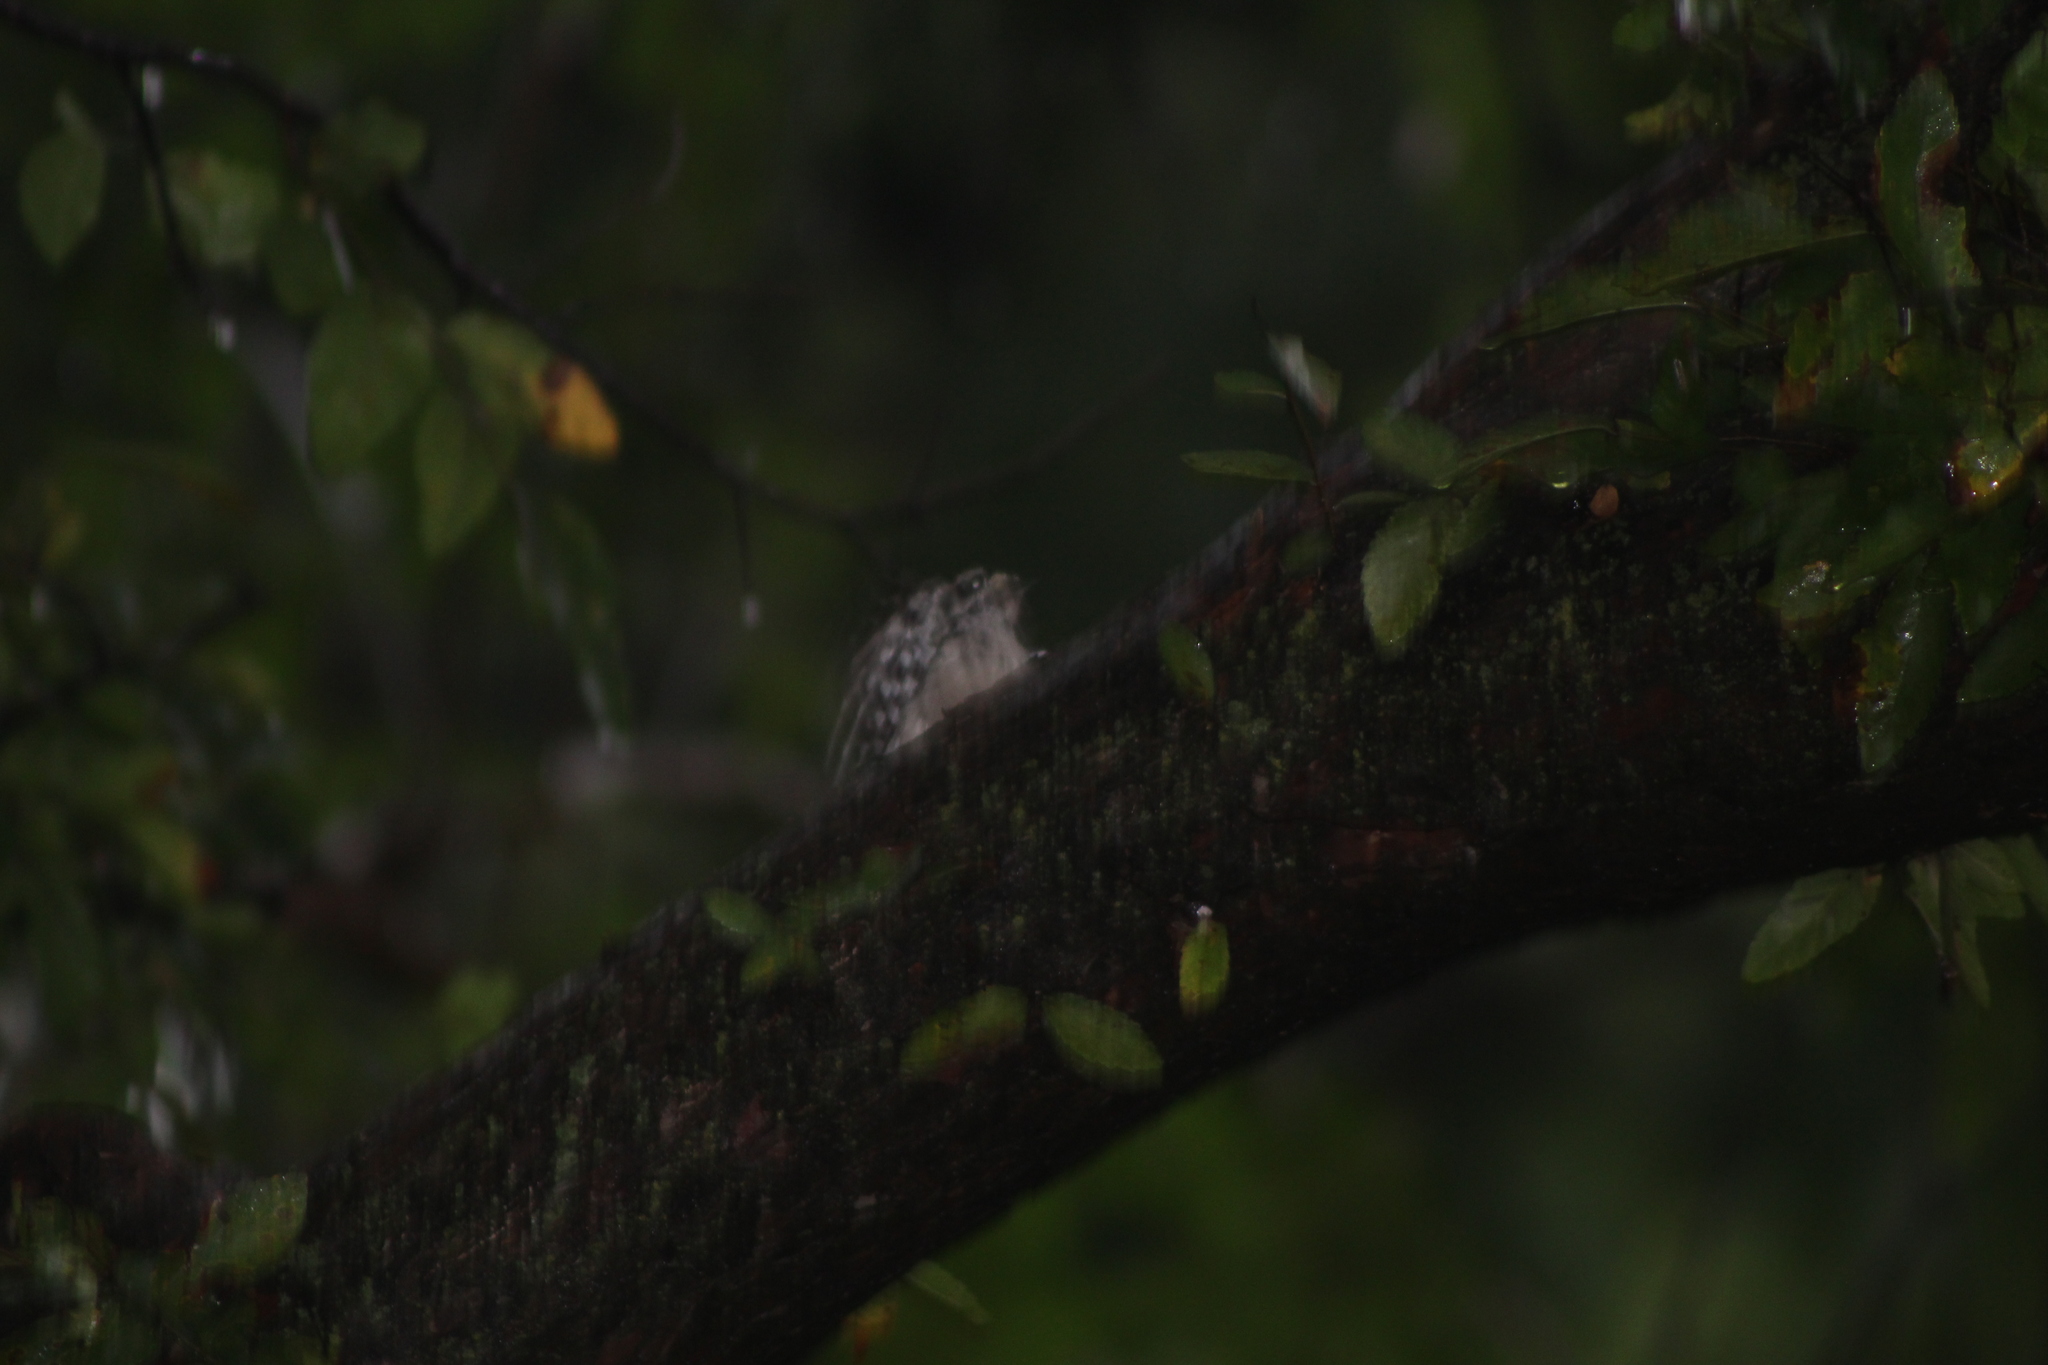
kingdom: Animalia
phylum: Chordata
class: Aves
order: Piciformes
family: Picidae
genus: Dryobates
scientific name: Dryobates pubescens
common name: Downy woodpecker
